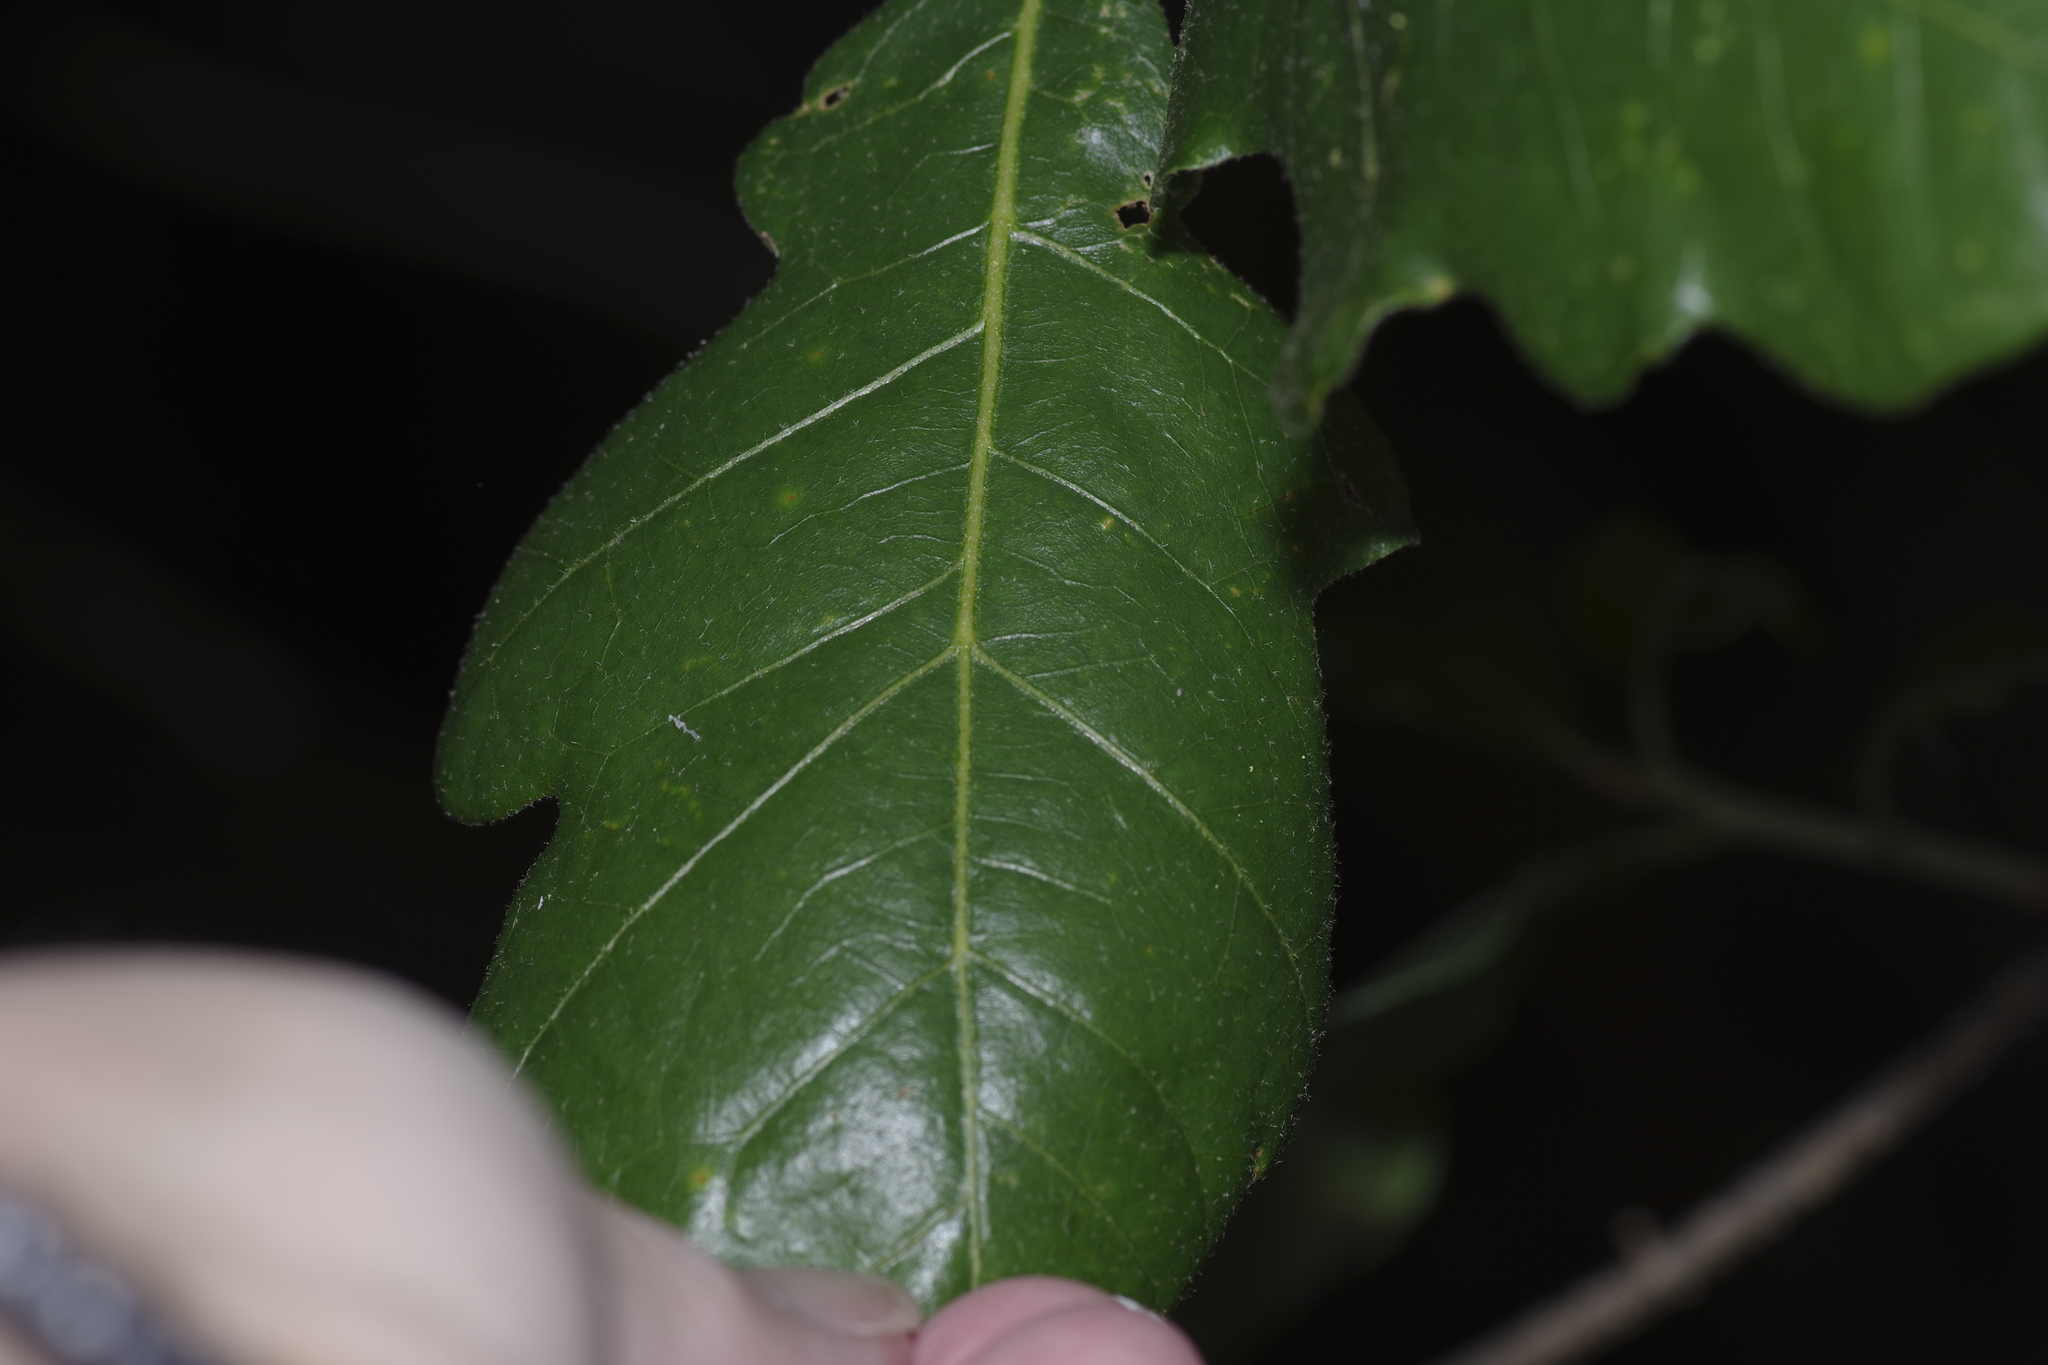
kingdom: Plantae
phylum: Tracheophyta
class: Magnoliopsida
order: Fagales
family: Fagaceae
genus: Quercus
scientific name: Quercus sinuata
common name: Durand oak
